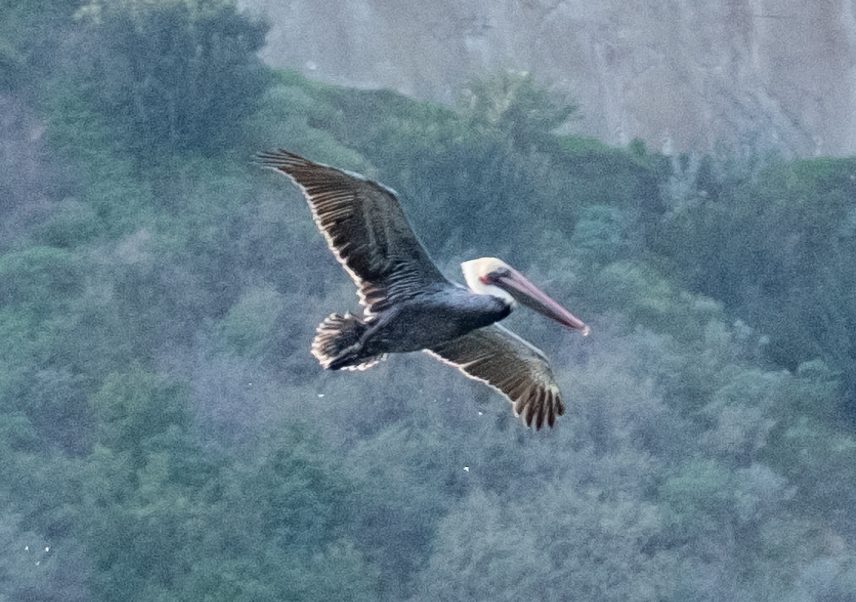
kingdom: Animalia
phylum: Chordata
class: Aves
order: Pelecaniformes
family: Pelecanidae
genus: Pelecanus
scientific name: Pelecanus occidentalis
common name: Brown pelican
